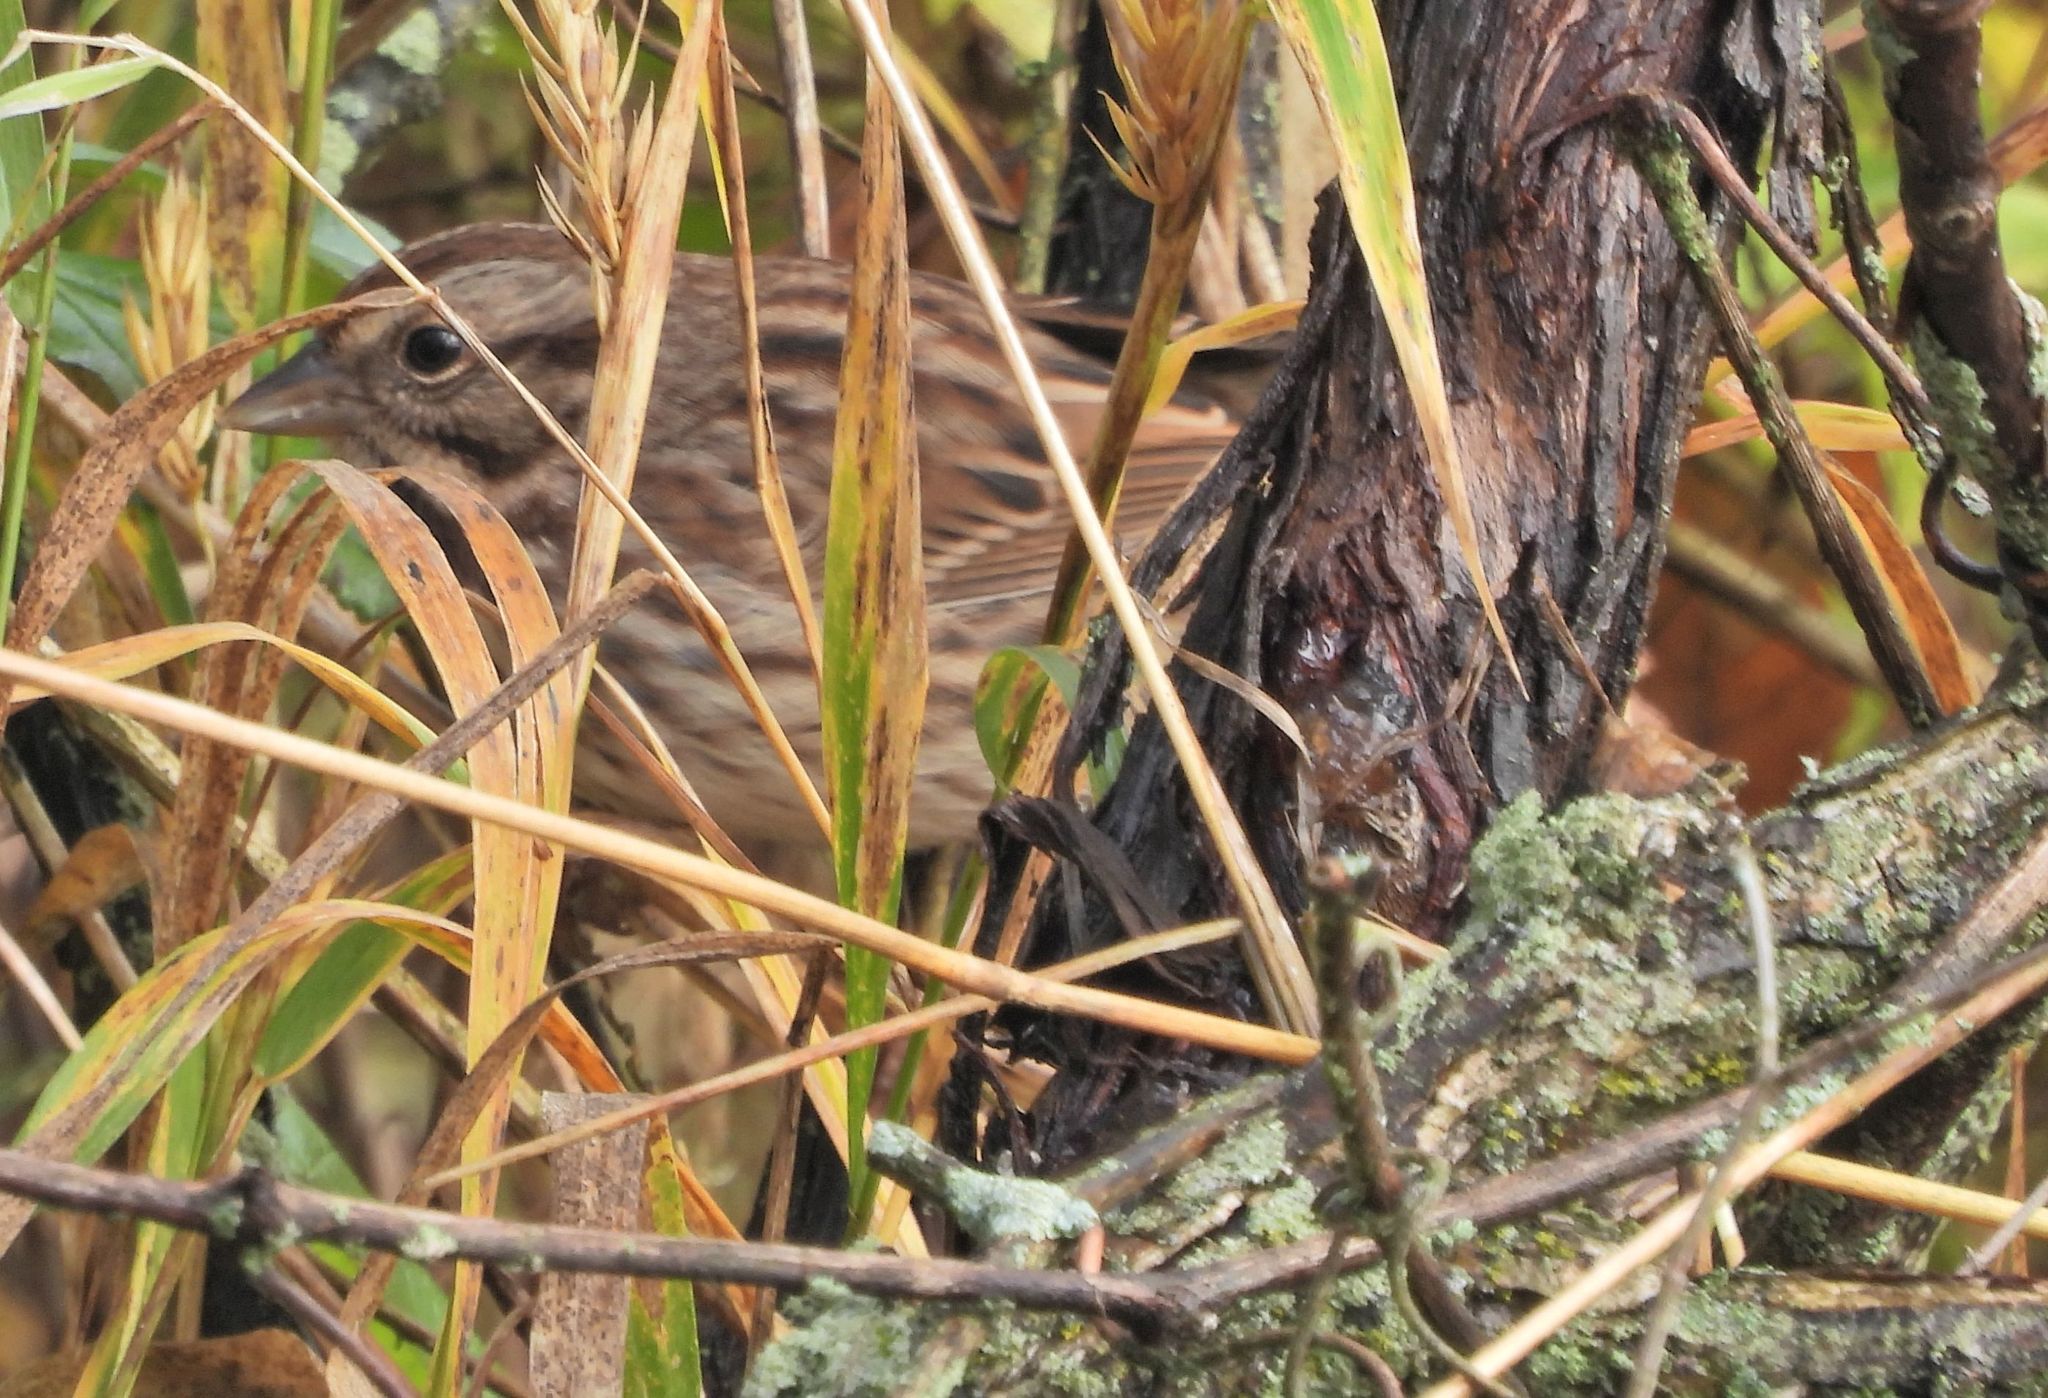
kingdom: Animalia
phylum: Chordata
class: Aves
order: Passeriformes
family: Passerellidae
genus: Melospiza
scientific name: Melospiza melodia
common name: Song sparrow
